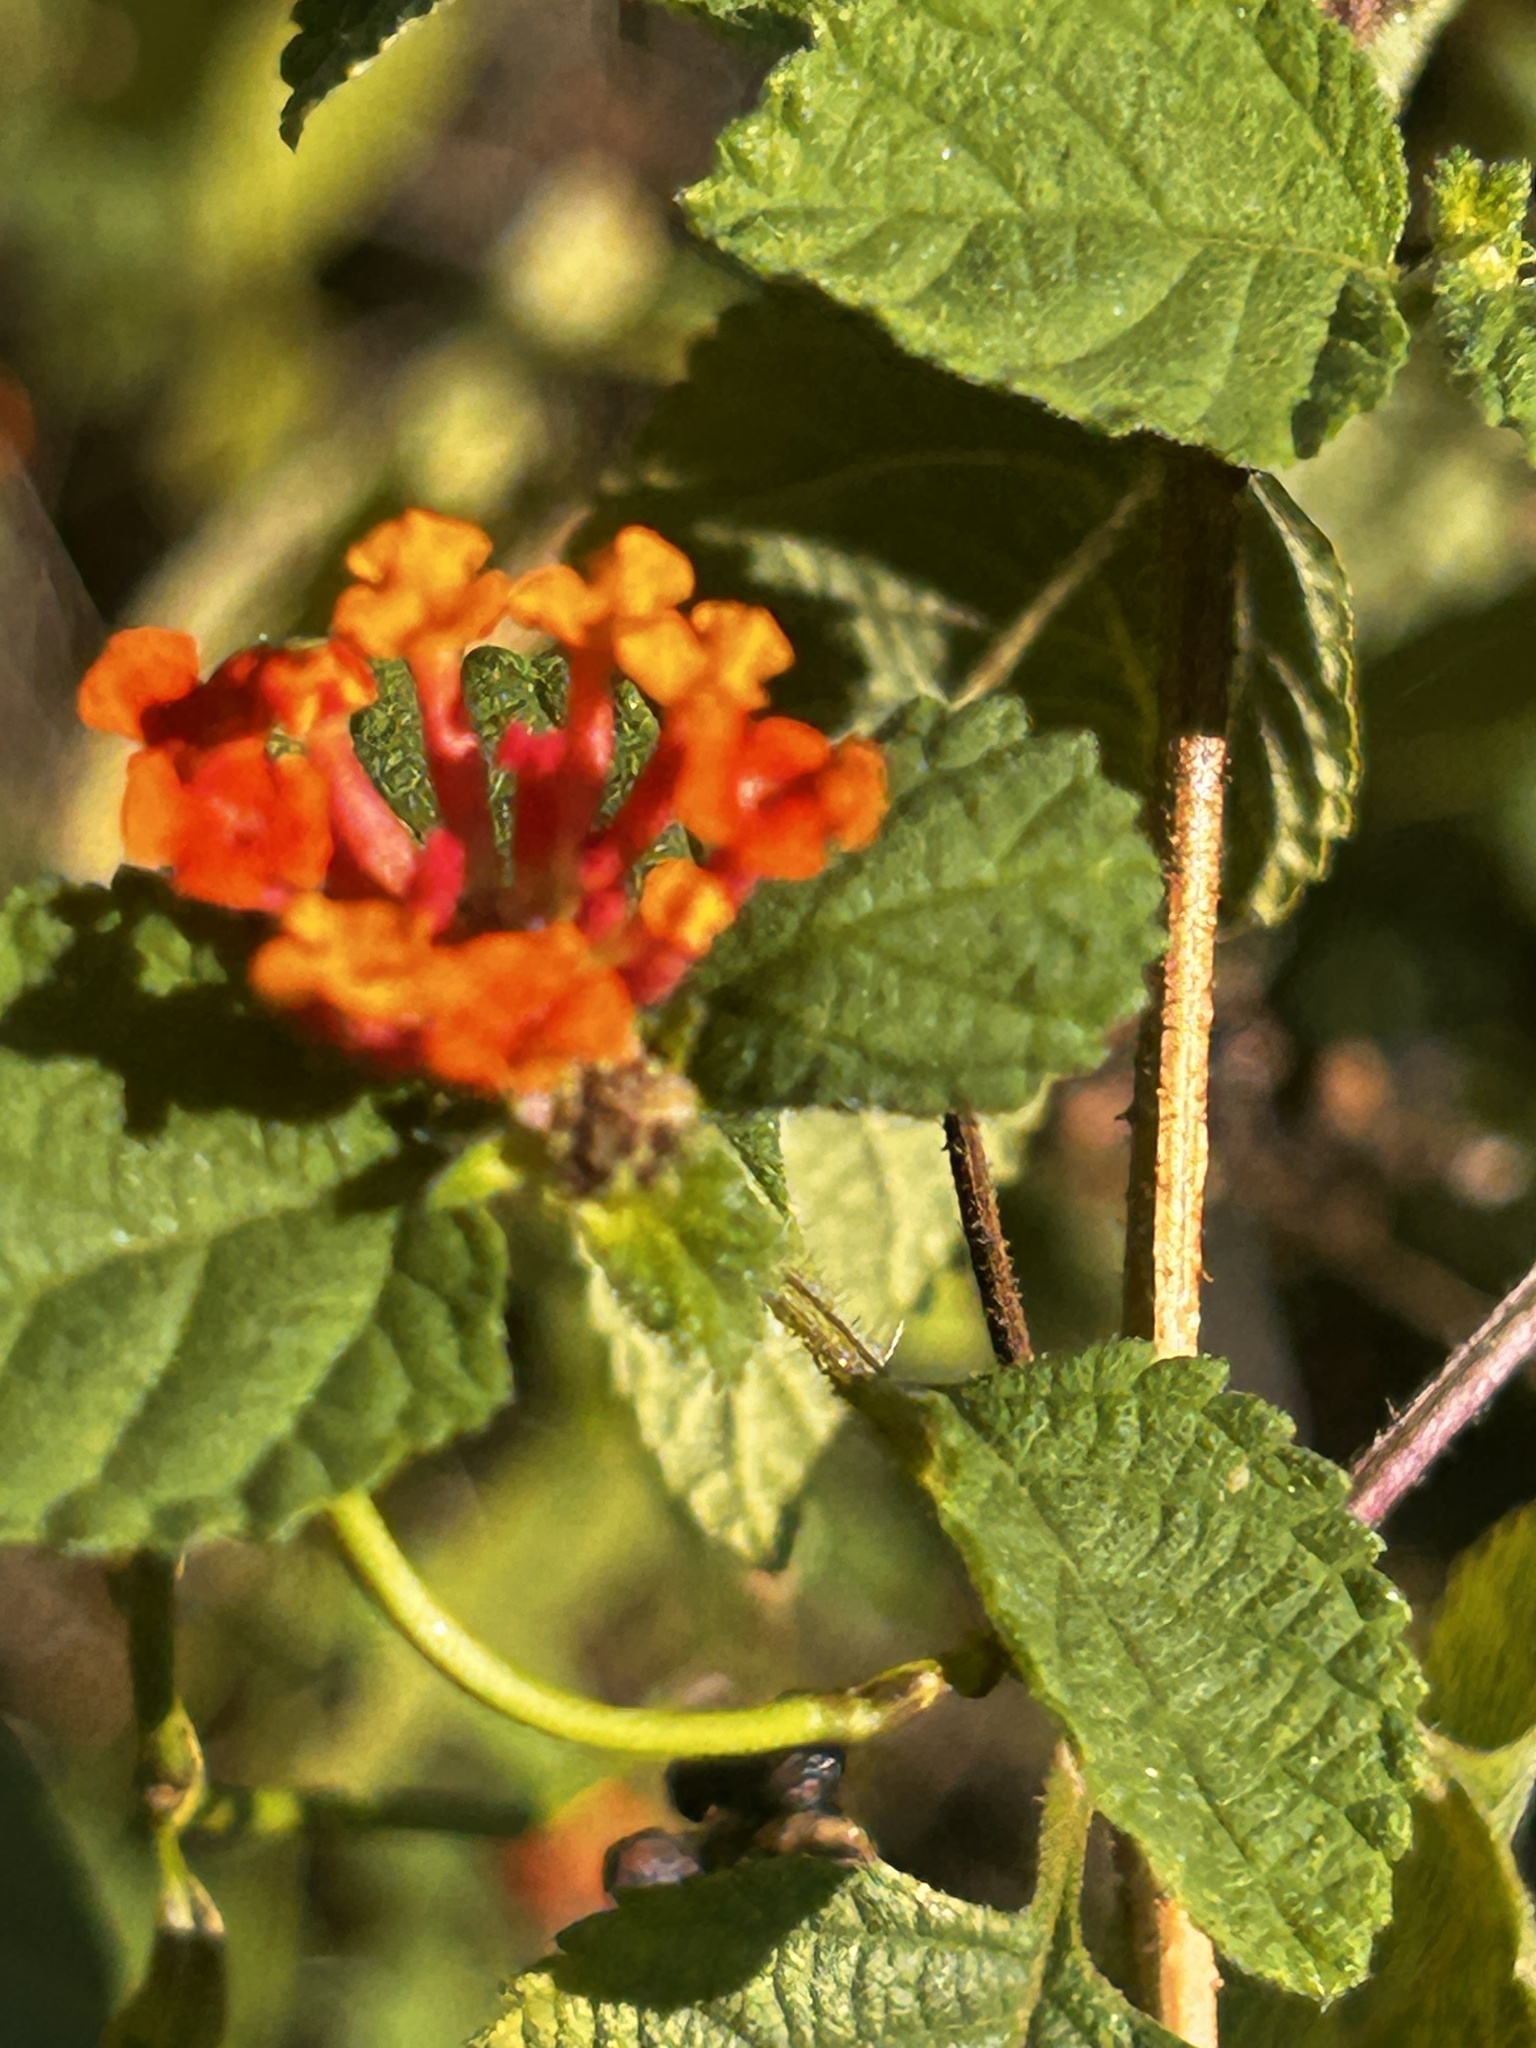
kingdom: Plantae
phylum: Tracheophyta
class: Magnoliopsida
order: Lamiales
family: Verbenaceae
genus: Lantana
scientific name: Lantana camara
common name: Lantana
